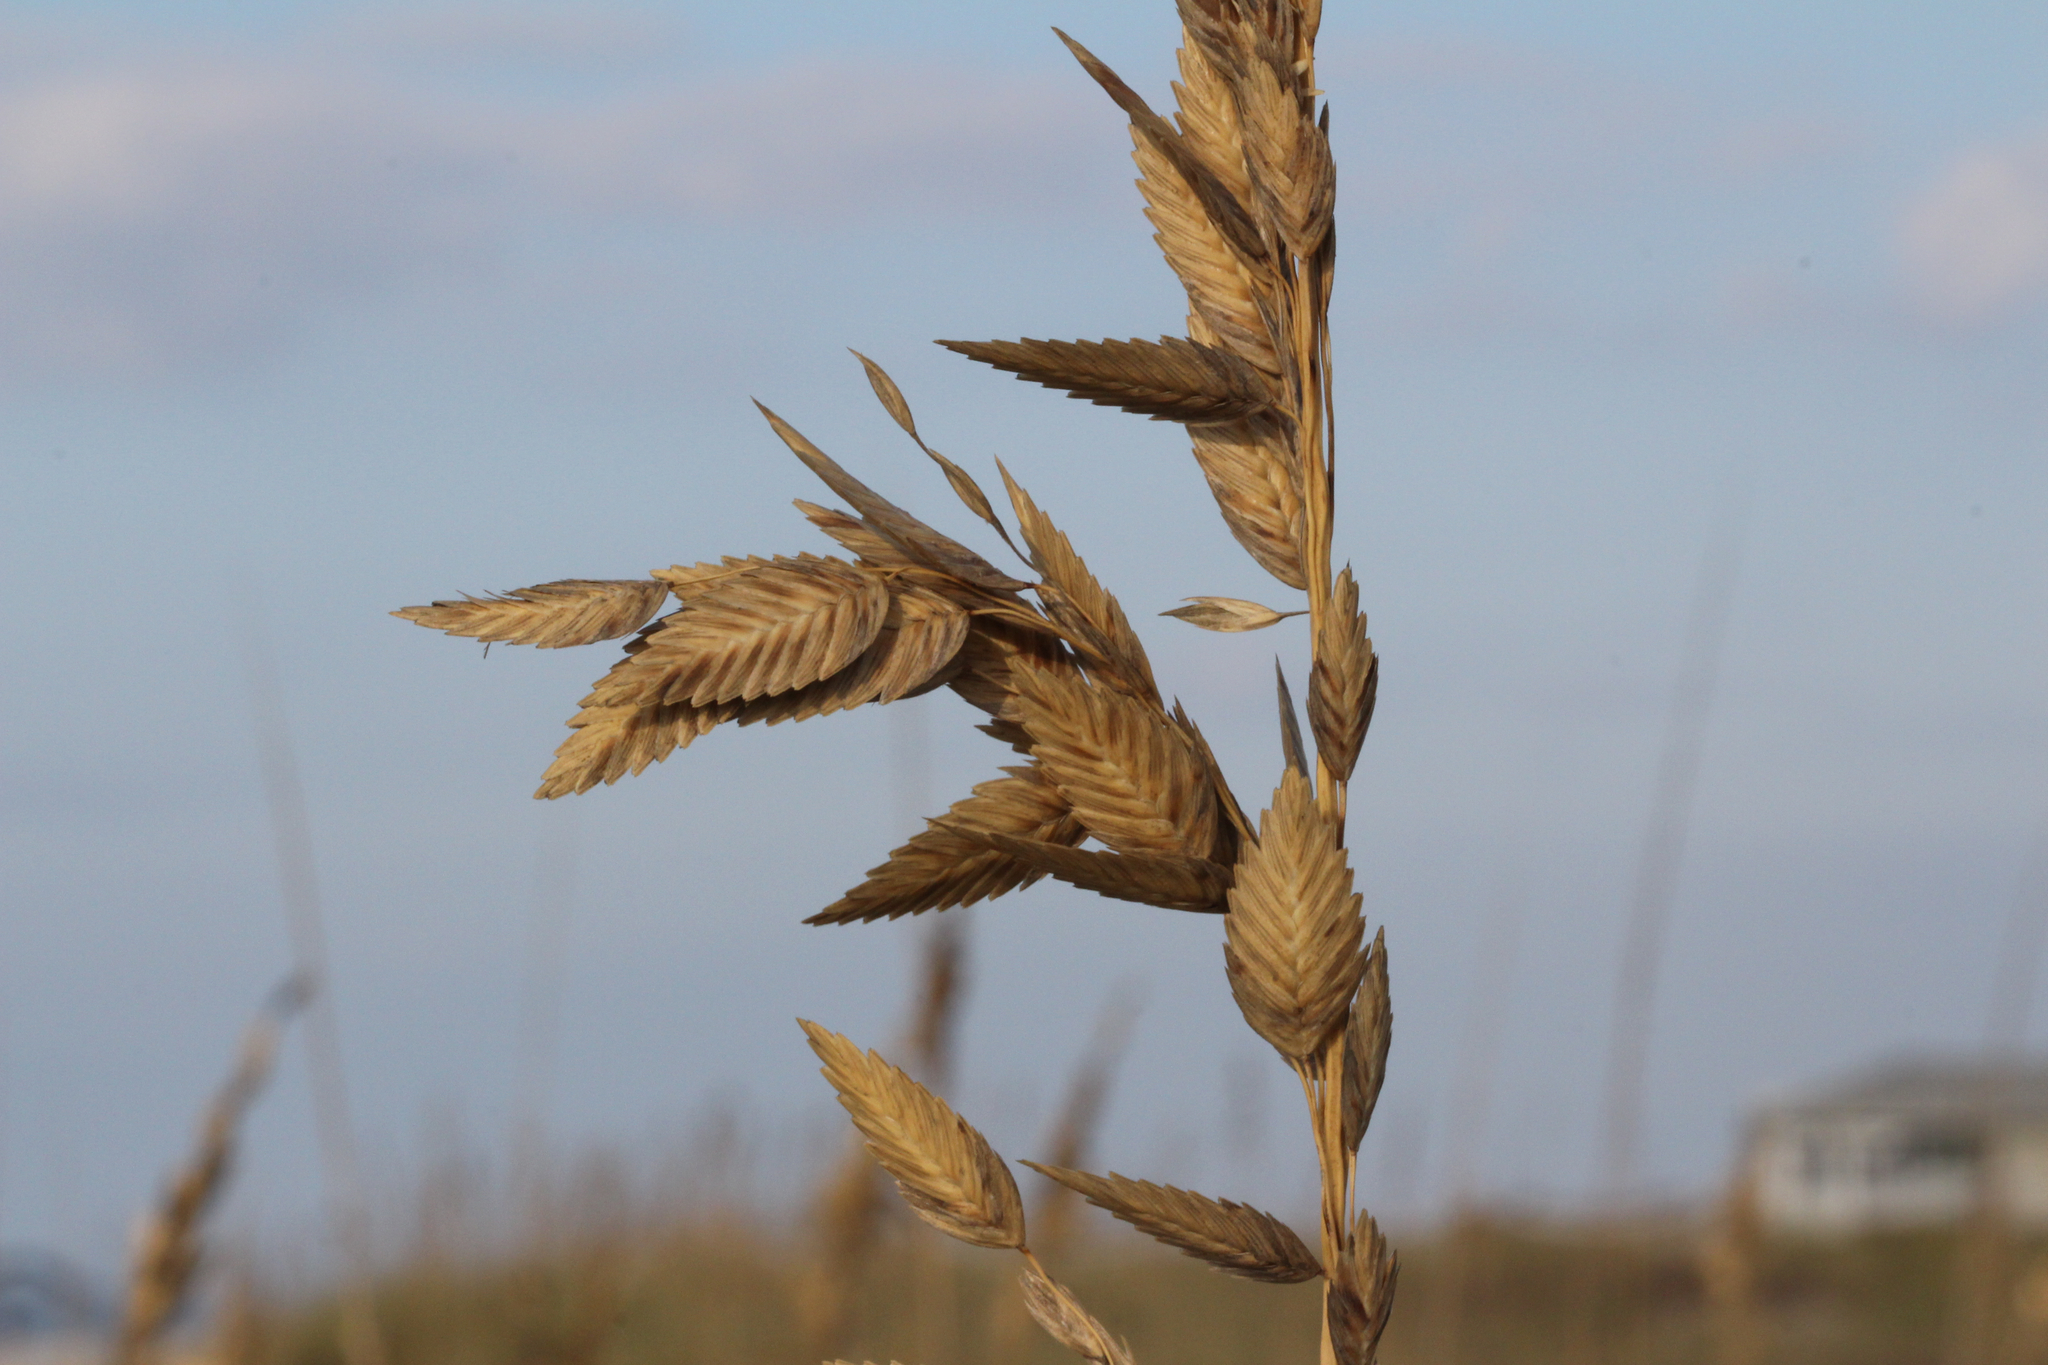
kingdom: Plantae
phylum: Tracheophyta
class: Liliopsida
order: Poales
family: Poaceae
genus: Uniola
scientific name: Uniola paniculata
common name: Seaside-oats
